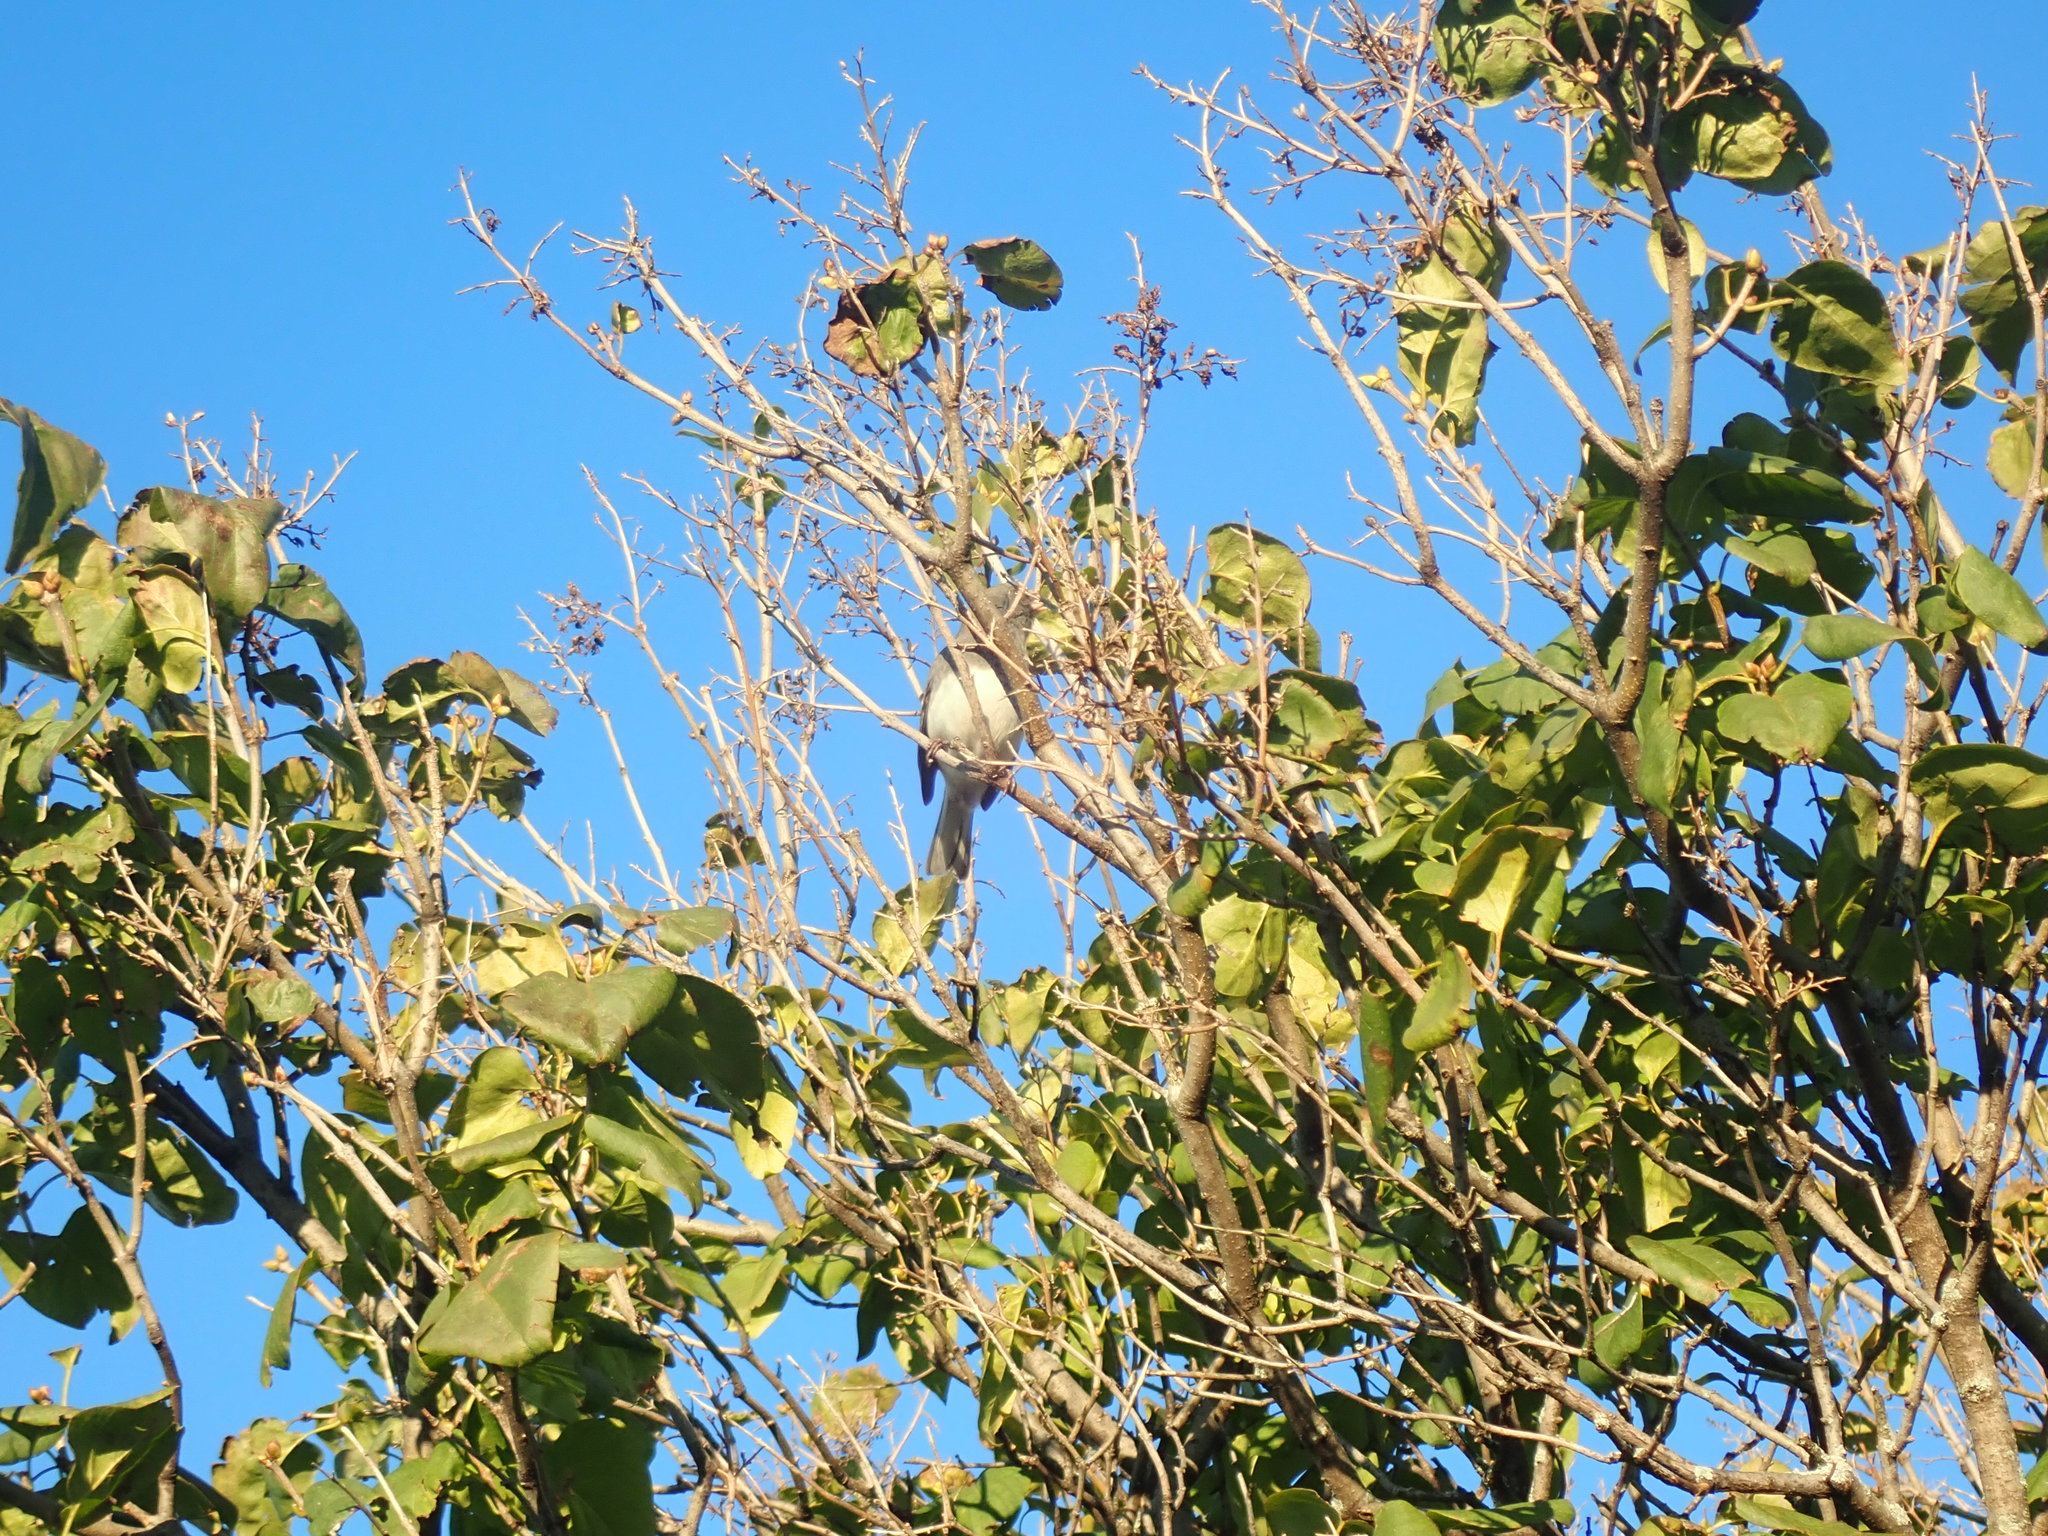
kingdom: Animalia
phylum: Chordata
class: Aves
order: Passeriformes
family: Passerellidae
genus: Junco
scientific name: Junco hyemalis
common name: Dark-eyed junco
